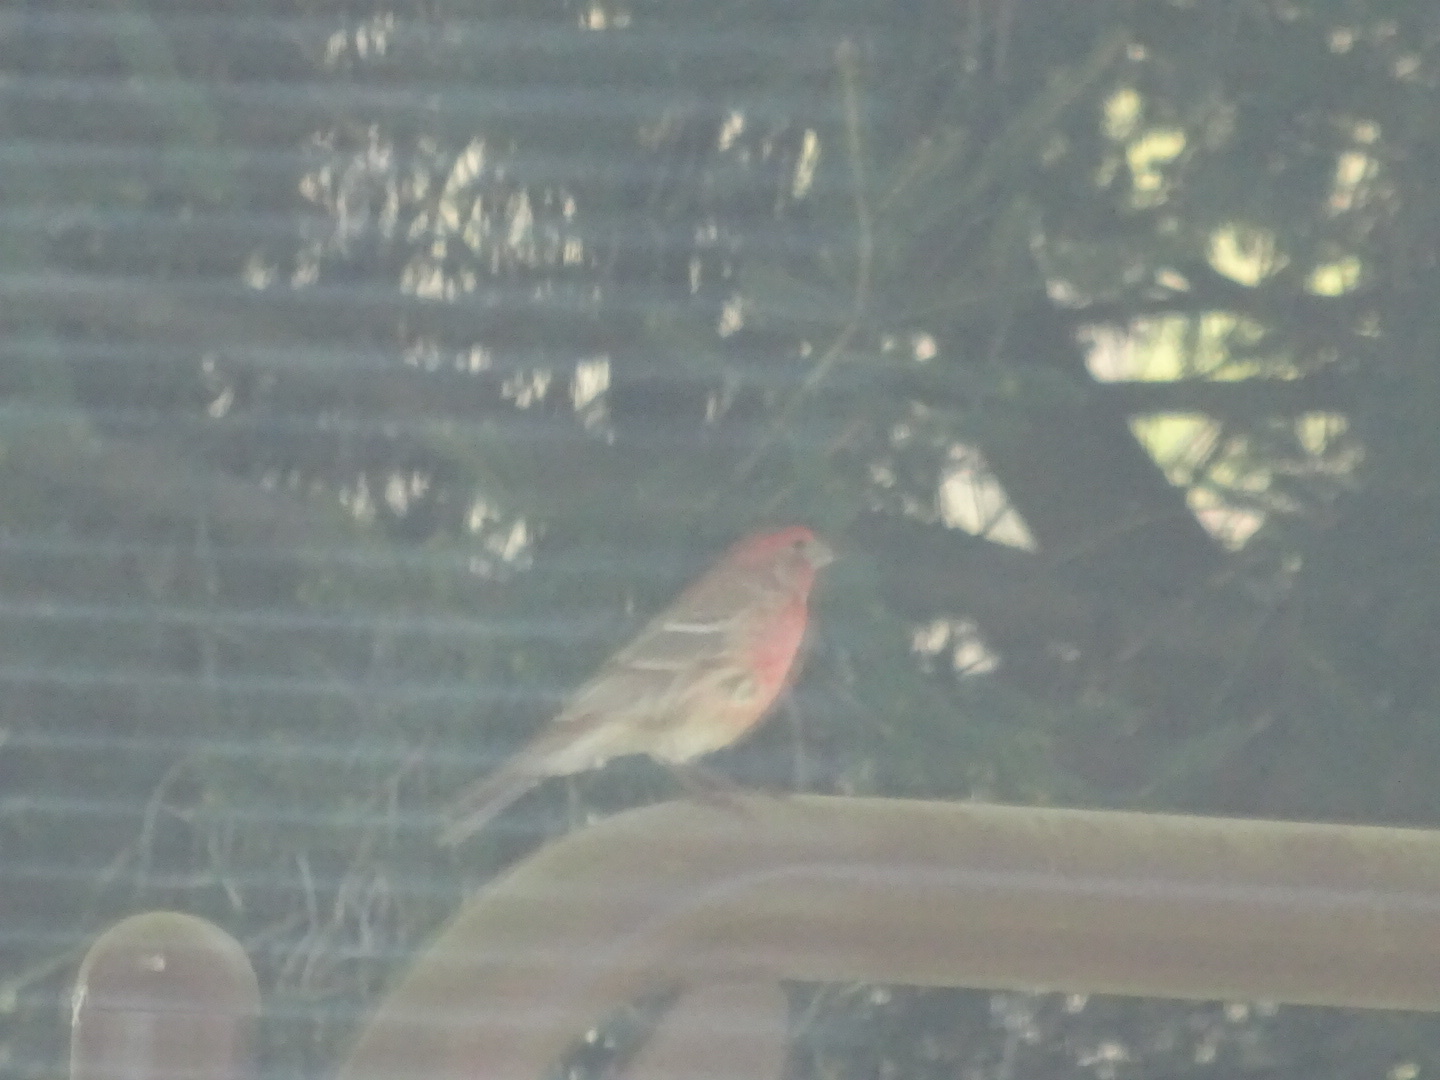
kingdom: Animalia
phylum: Chordata
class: Aves
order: Passeriformes
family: Fringillidae
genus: Haemorhous
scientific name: Haemorhous mexicanus
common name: House finch
